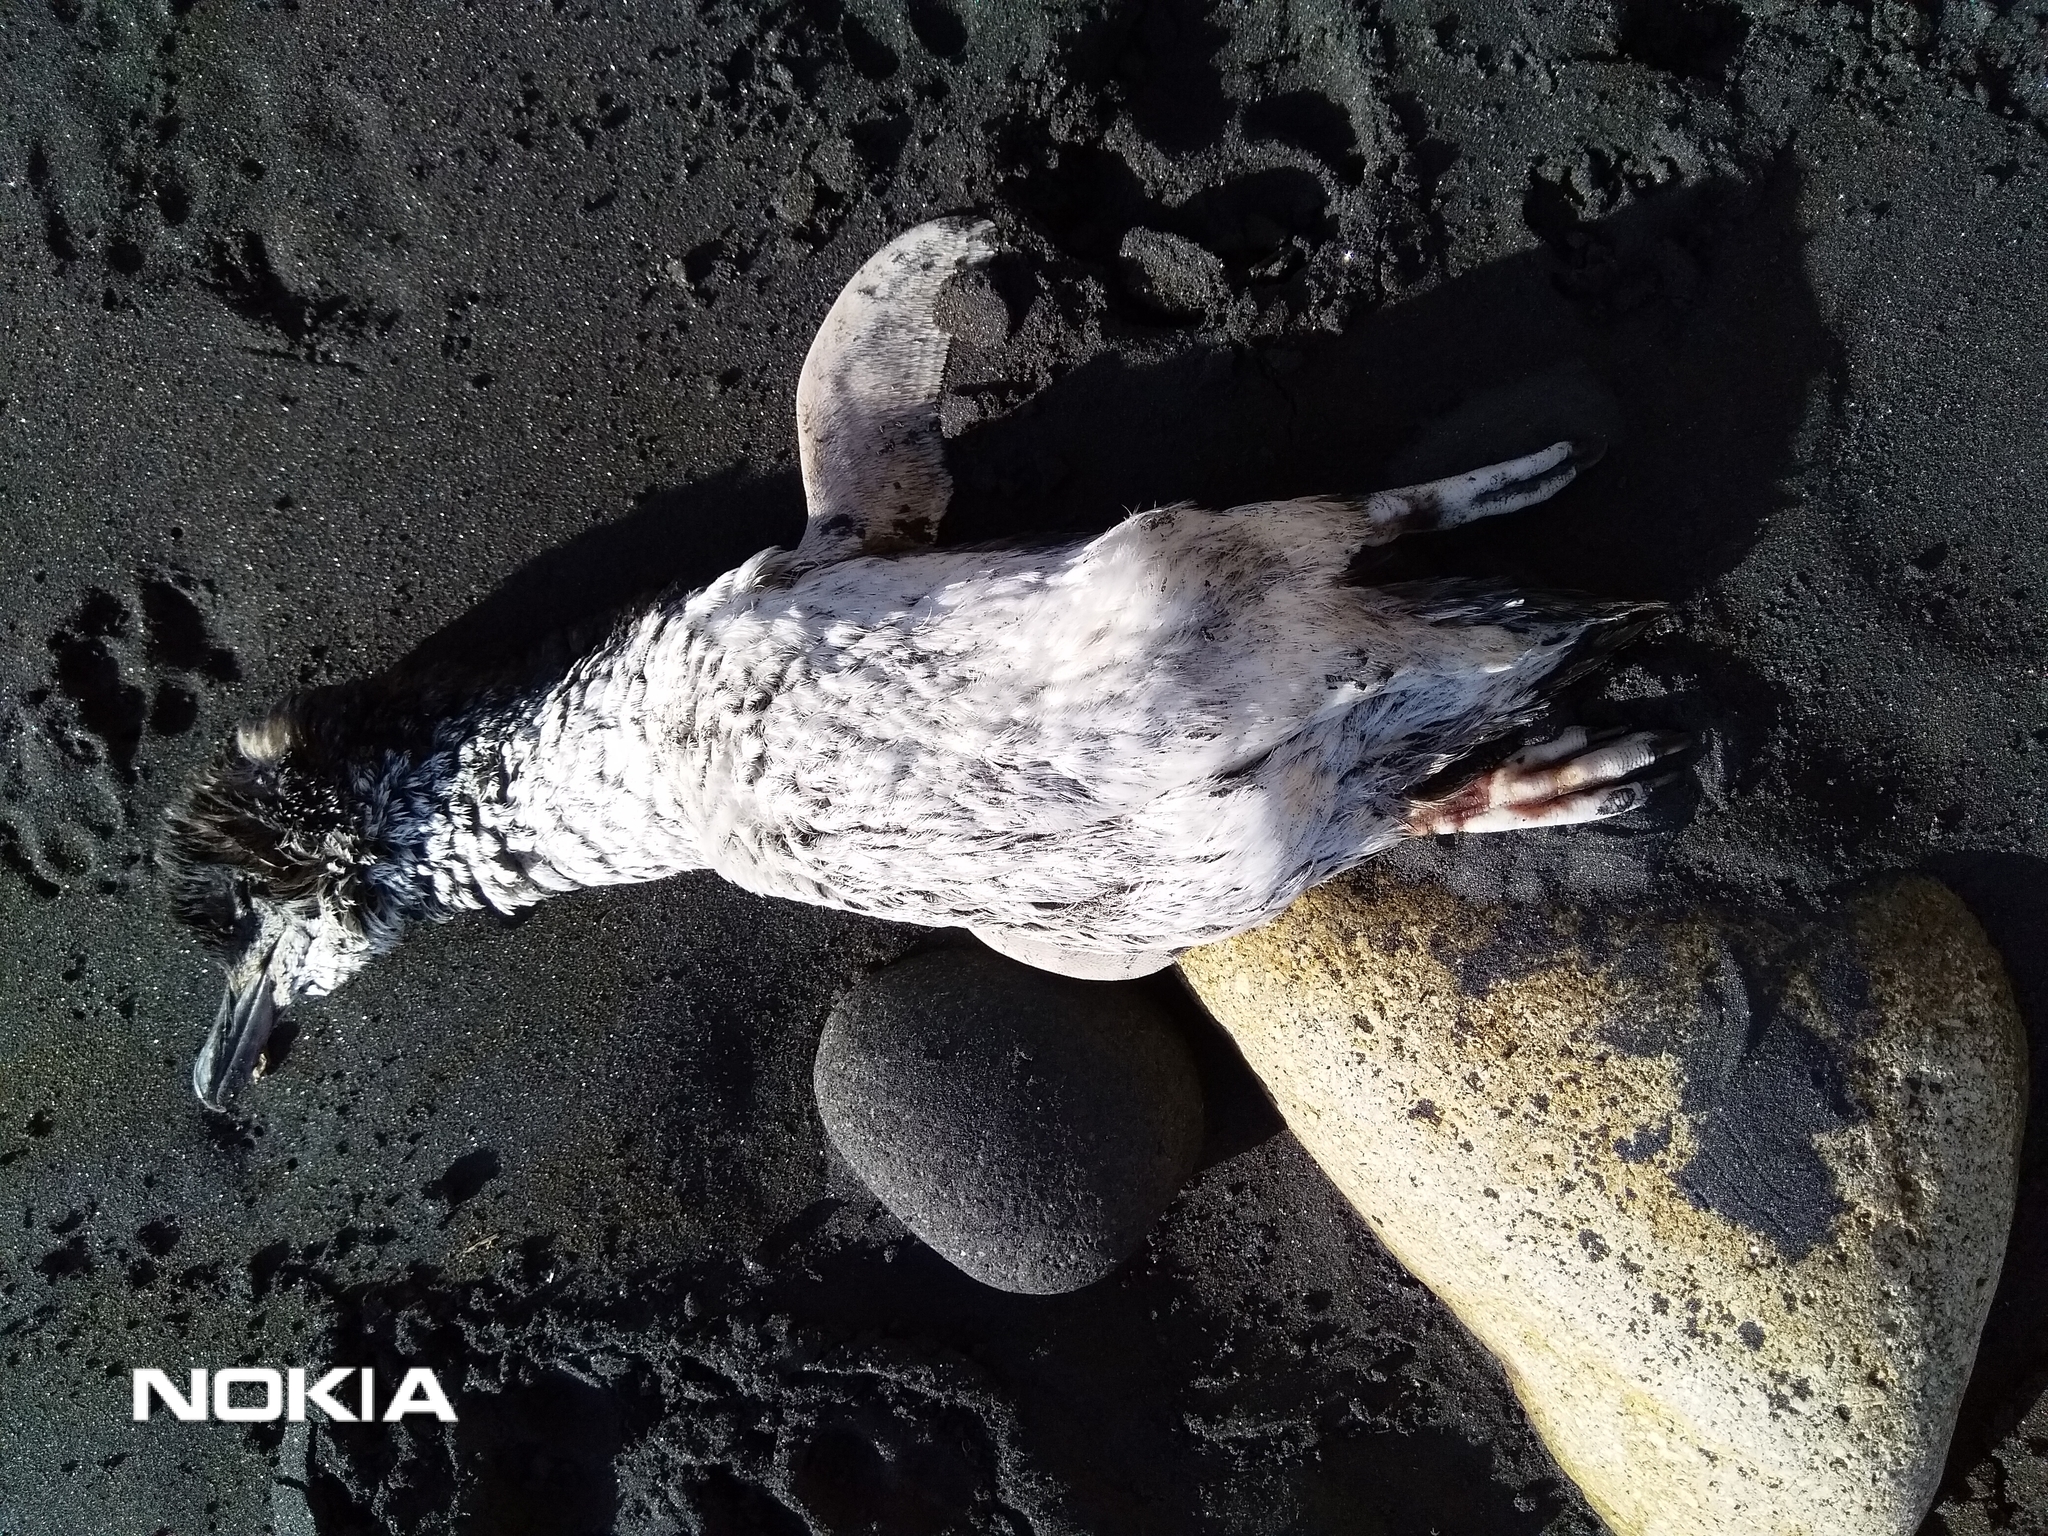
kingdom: Animalia
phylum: Chordata
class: Aves
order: Sphenisciformes
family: Spheniscidae
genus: Eudyptula
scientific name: Eudyptula minor
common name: Little penguin
